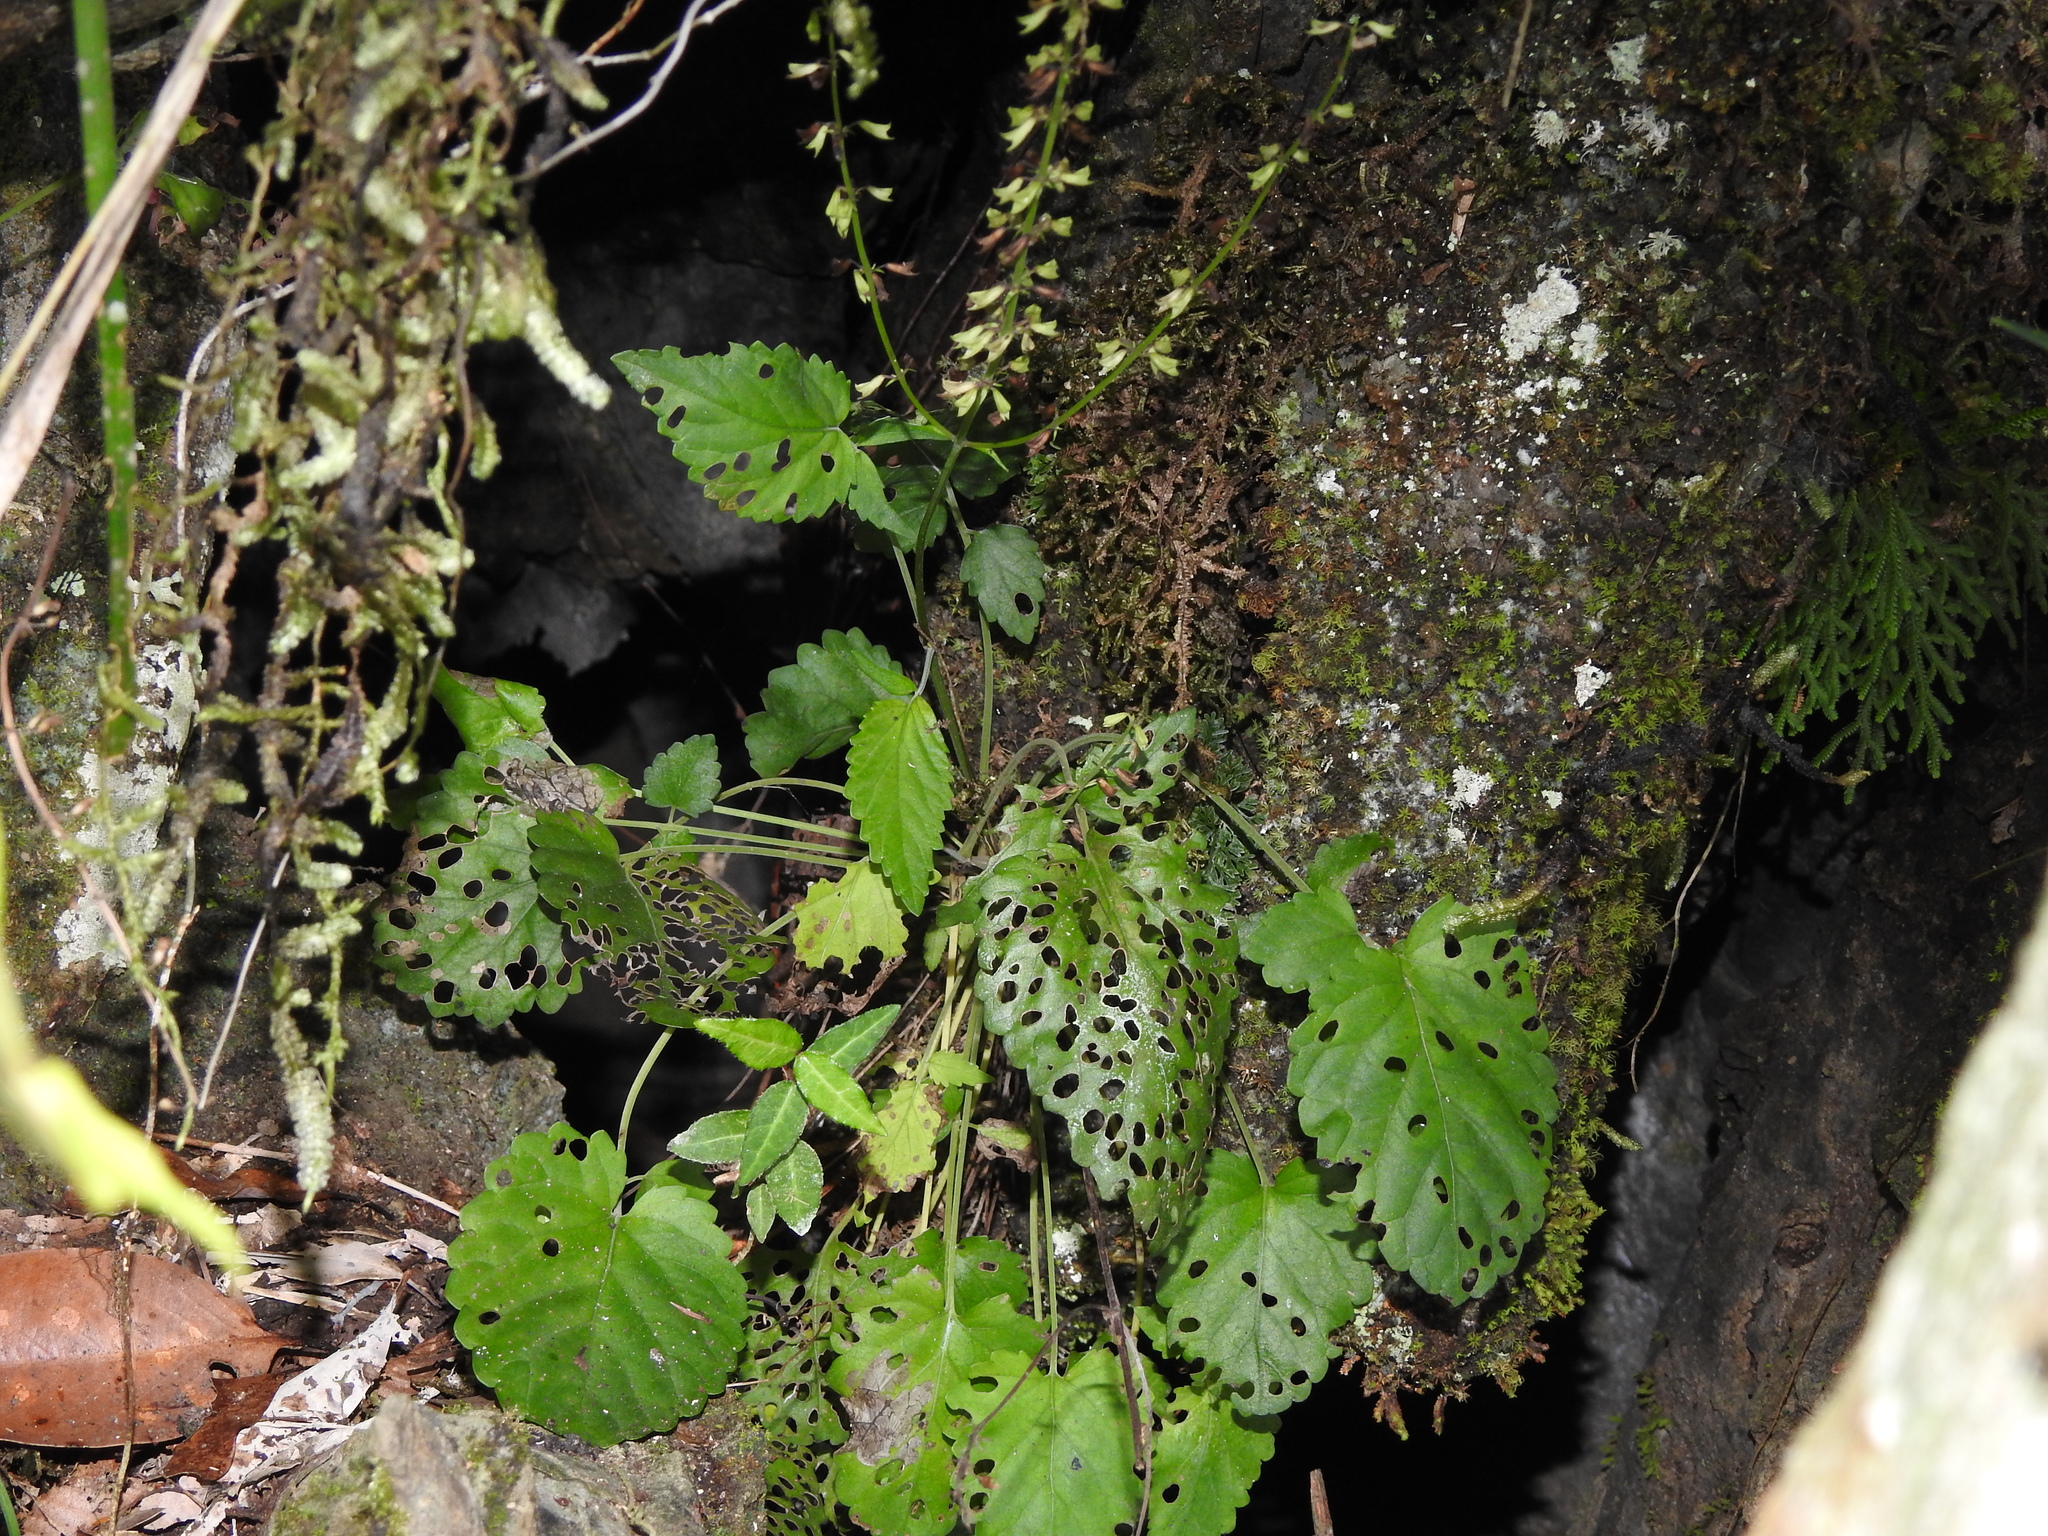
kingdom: Plantae
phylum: Tracheophyta
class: Magnoliopsida
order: Lamiales
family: Lamiaceae
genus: Salvia
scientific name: Salvia scapiformis
